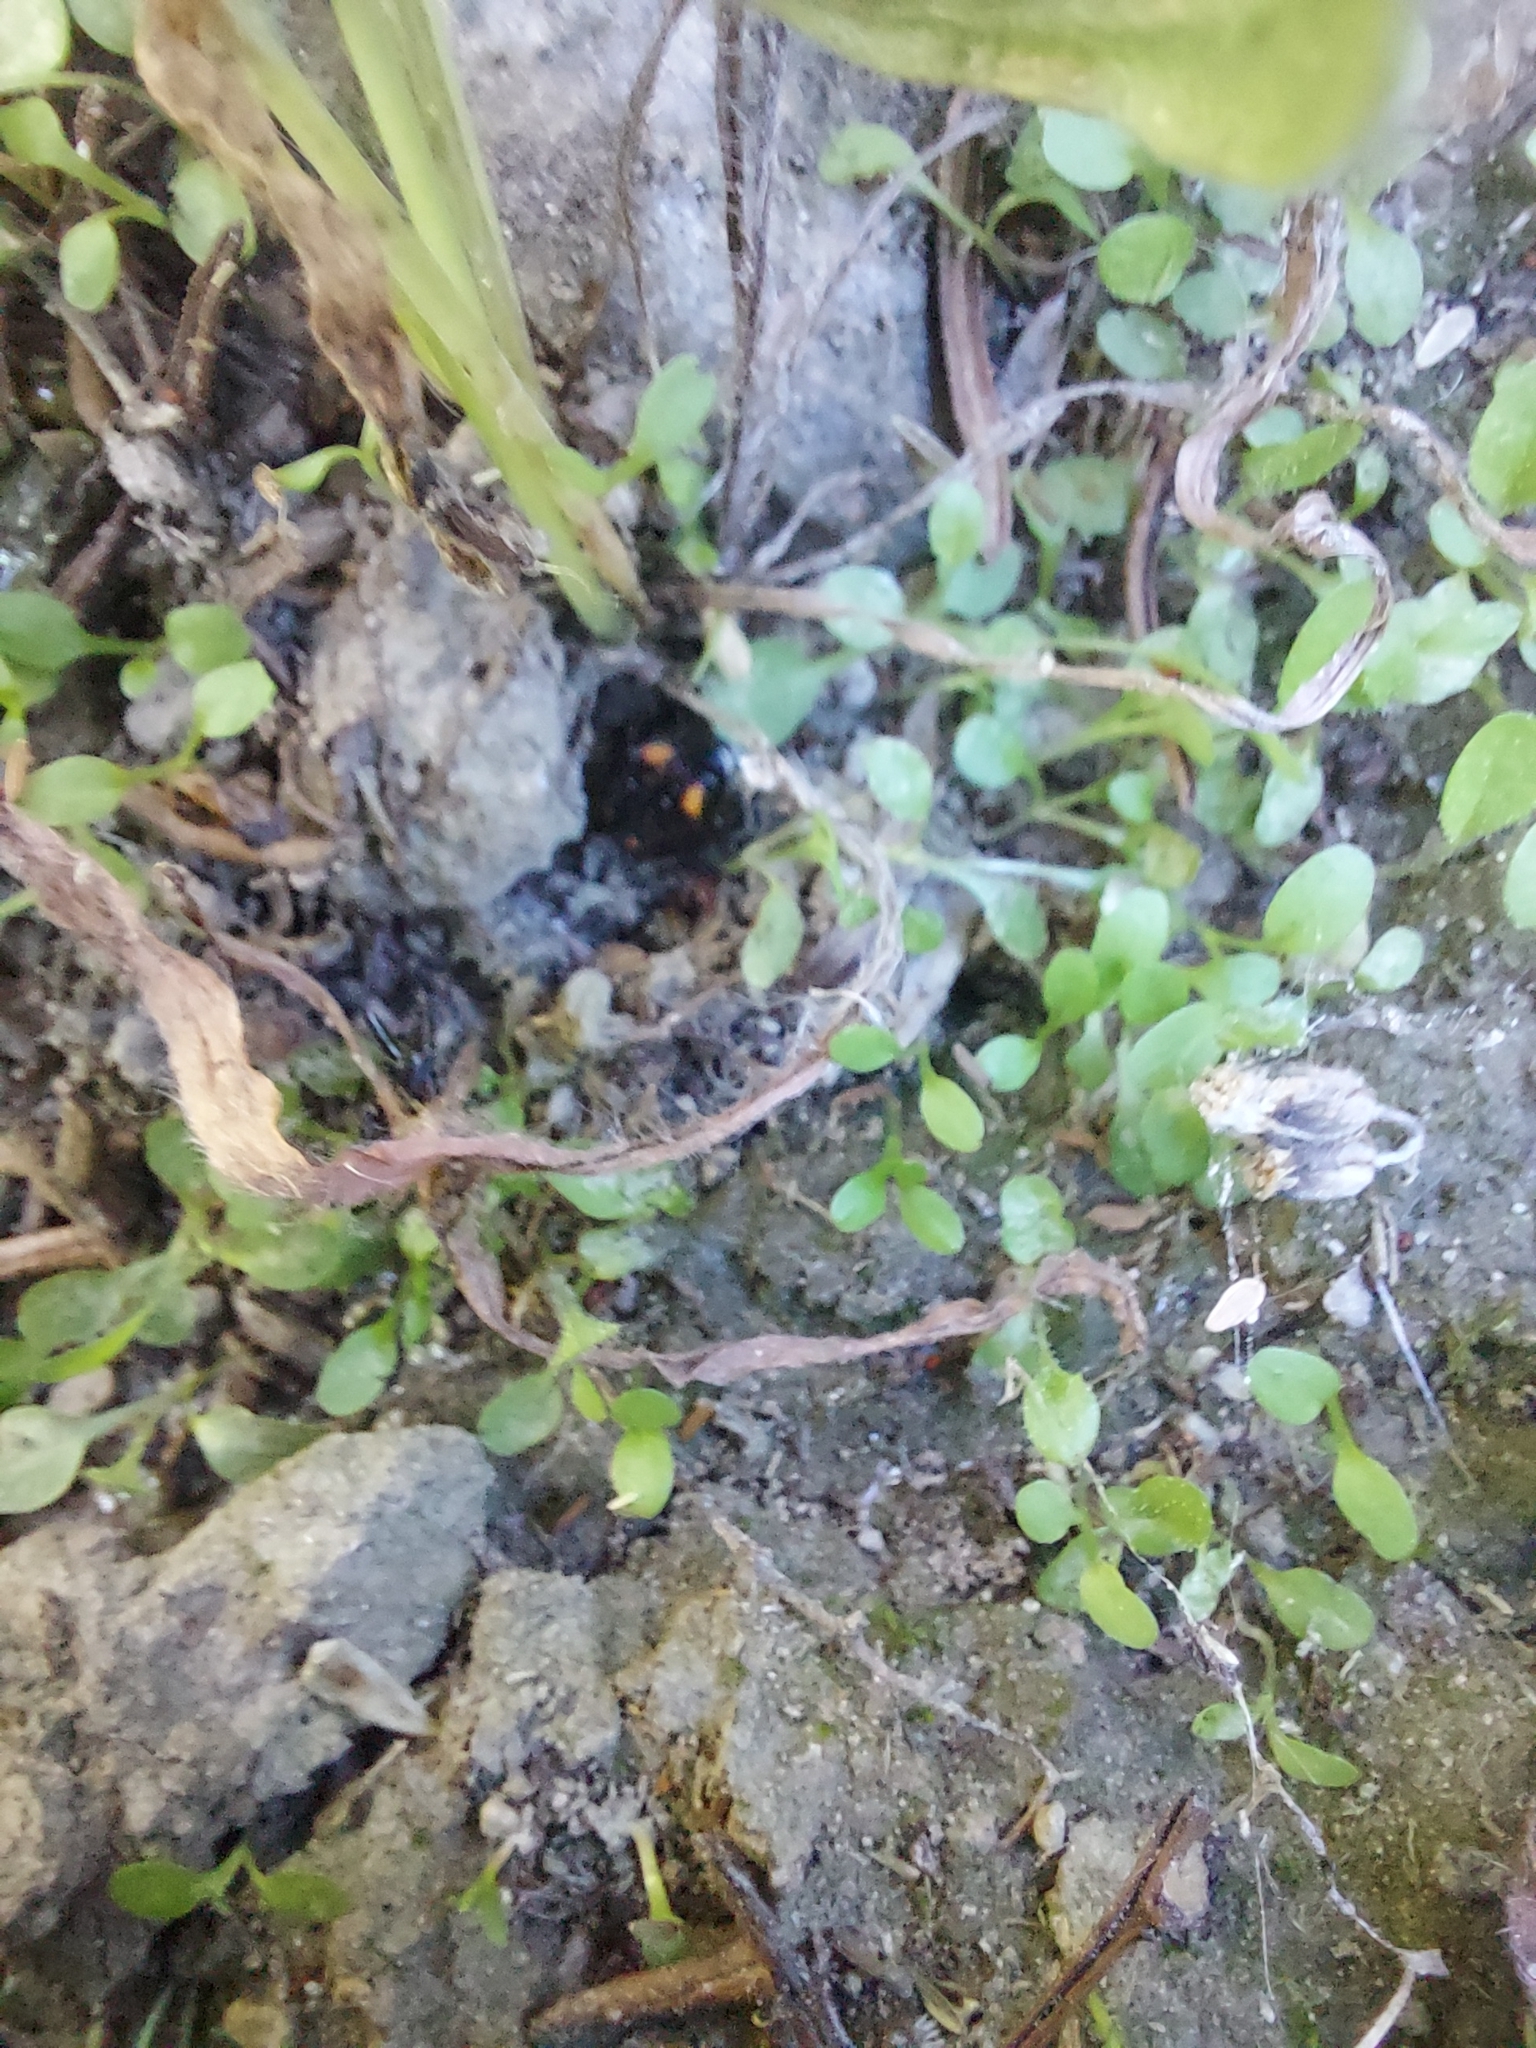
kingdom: Animalia
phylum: Arthropoda
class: Insecta
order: Hemiptera
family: Pentatomidae
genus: Cermatulus
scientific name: Cermatulus nasalis
